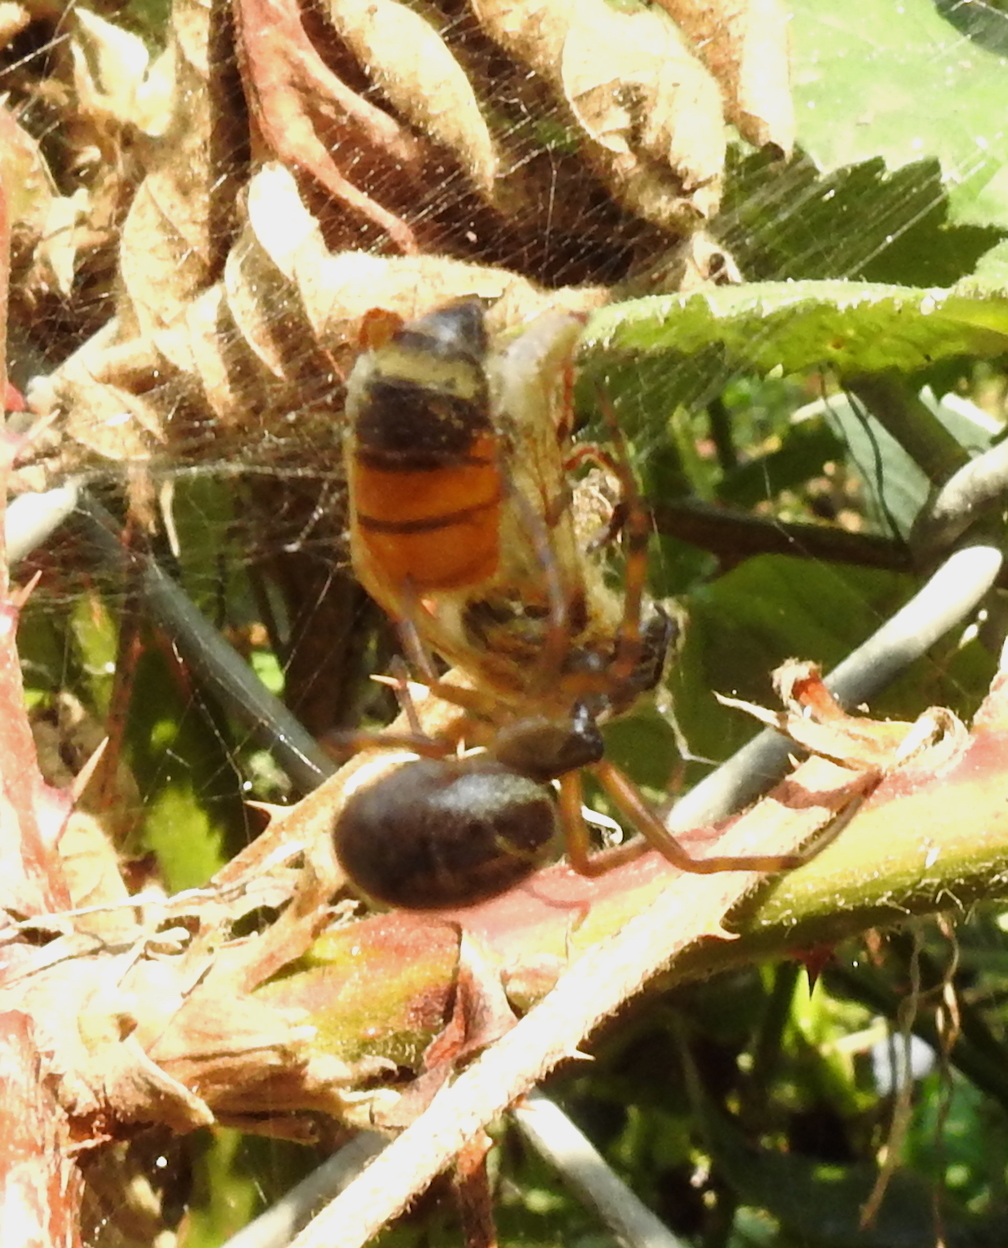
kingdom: Animalia
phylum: Arthropoda
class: Insecta
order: Hymenoptera
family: Apidae
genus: Apis
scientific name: Apis mellifera
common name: Honey bee
